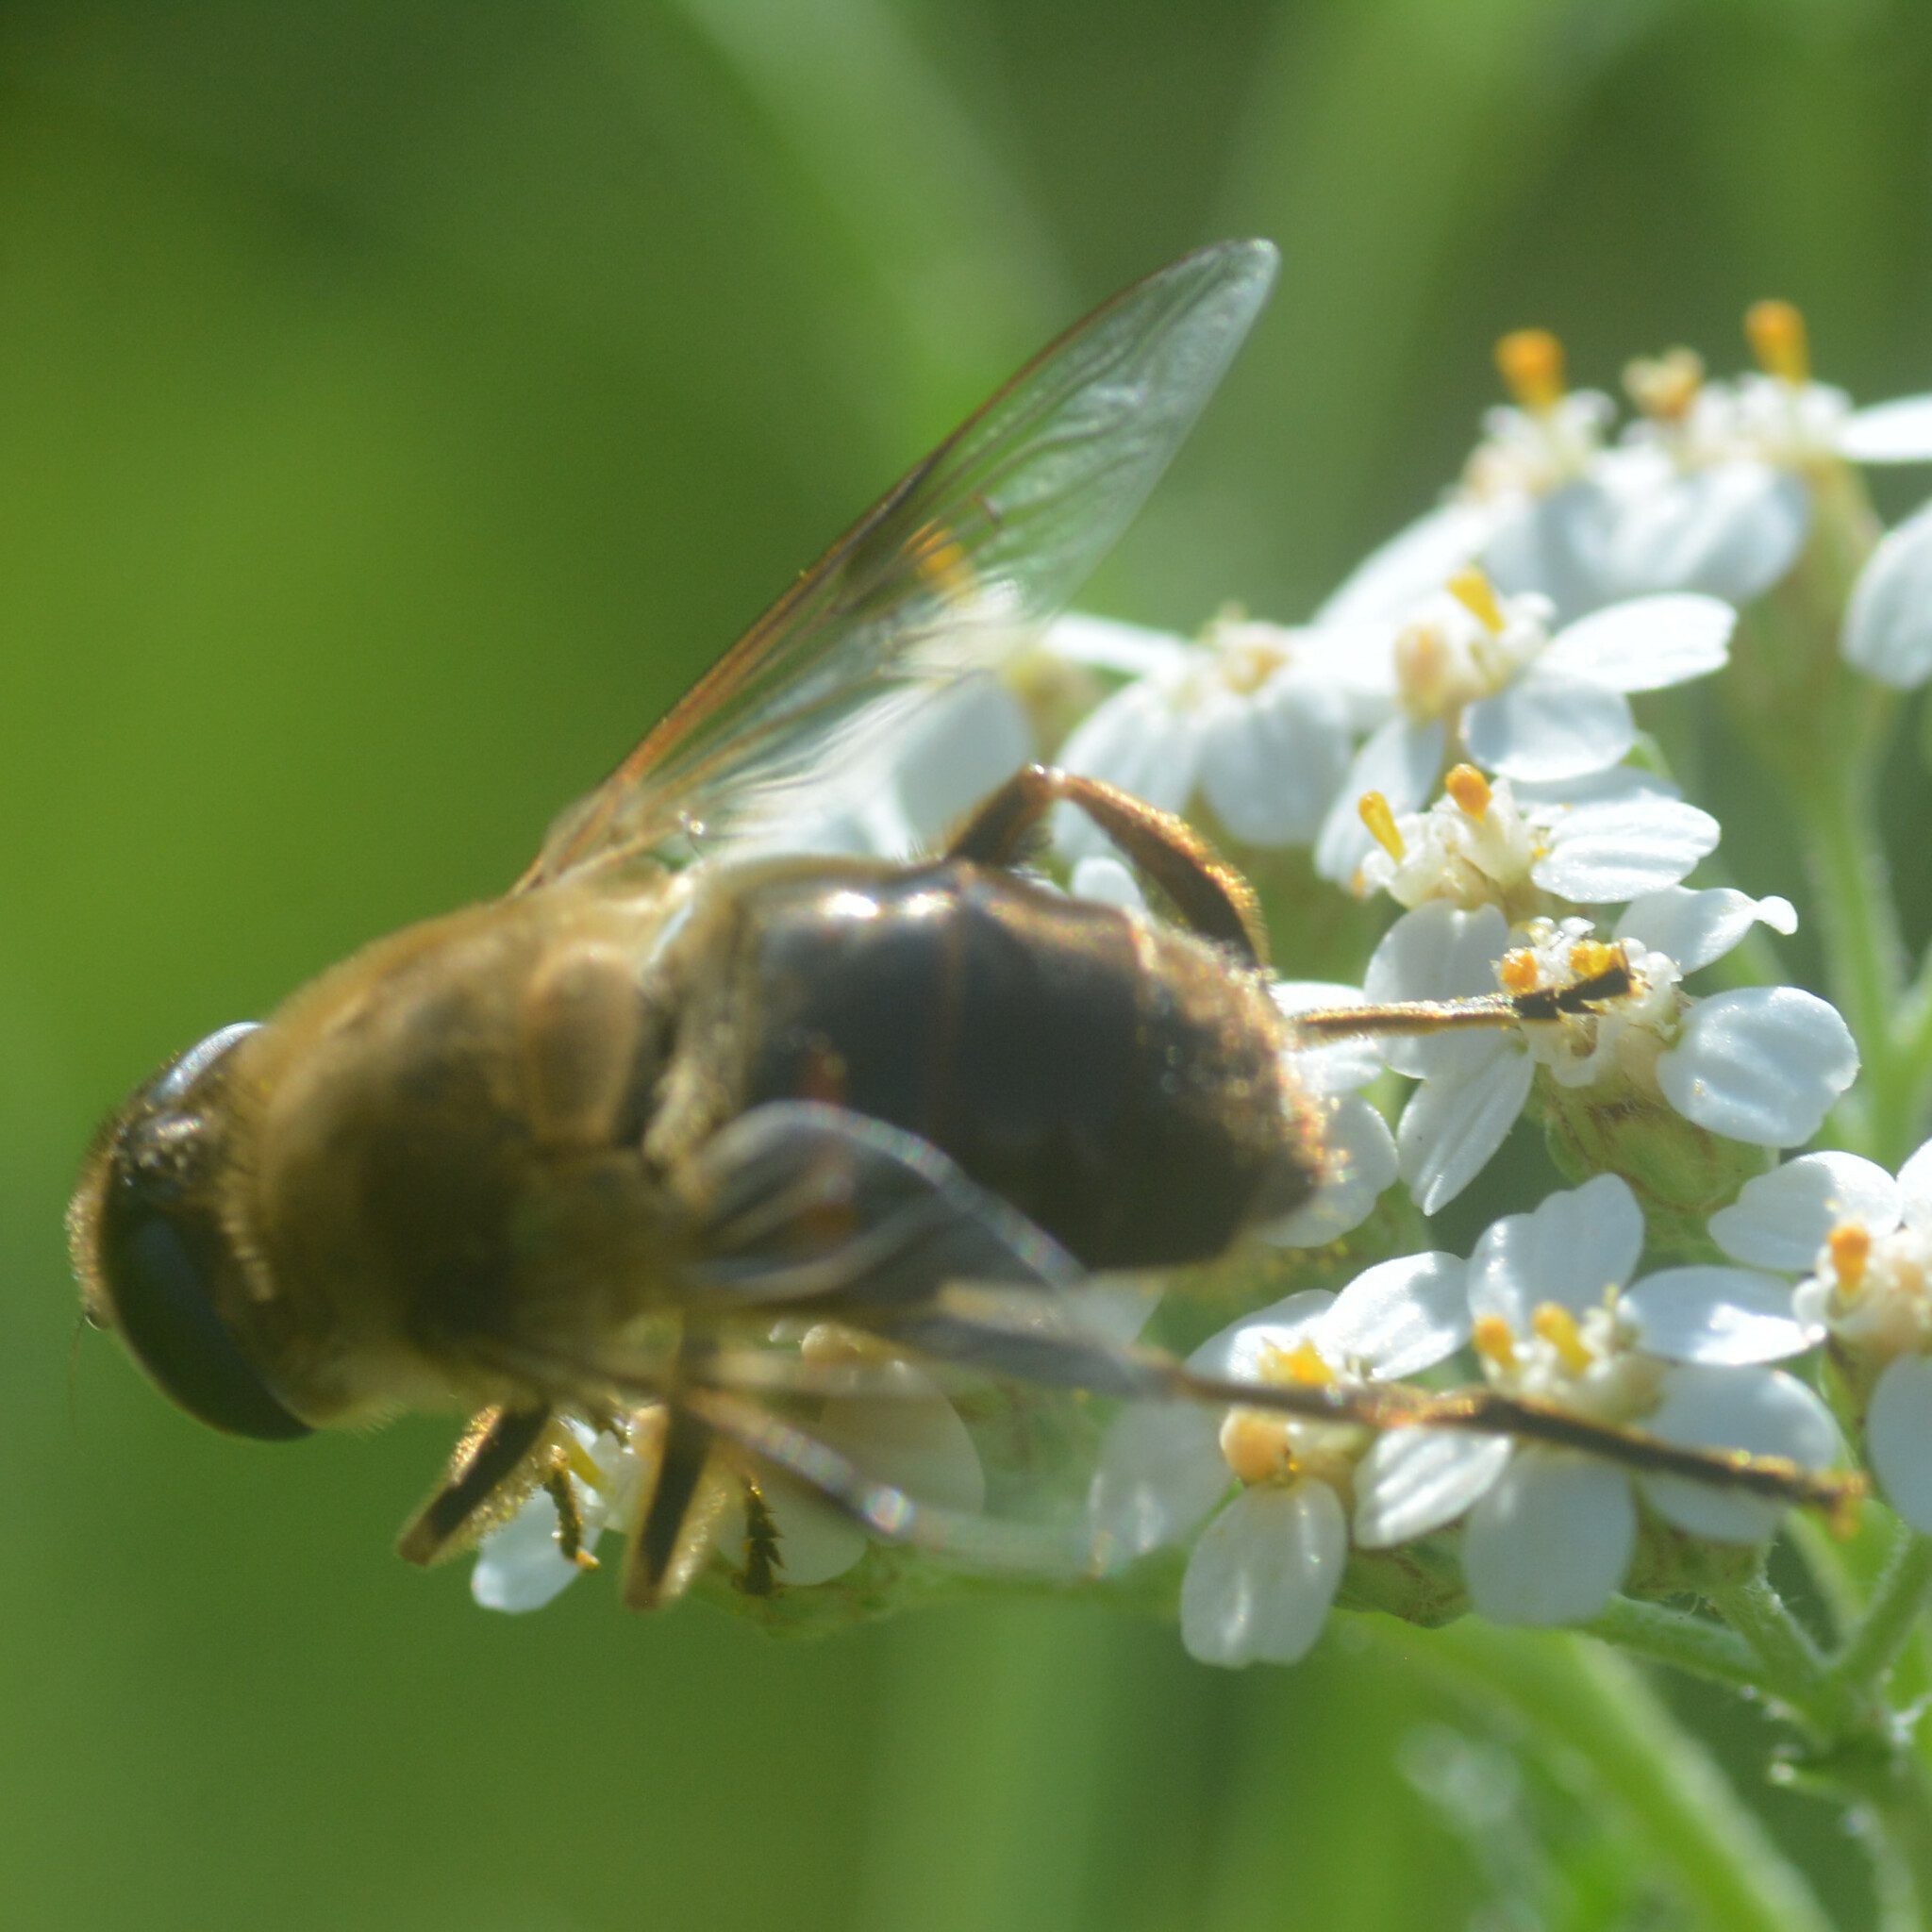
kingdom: Animalia
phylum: Arthropoda
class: Insecta
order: Diptera
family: Syrphidae
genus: Eristalis
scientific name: Eristalis tenax
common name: Drone fly
